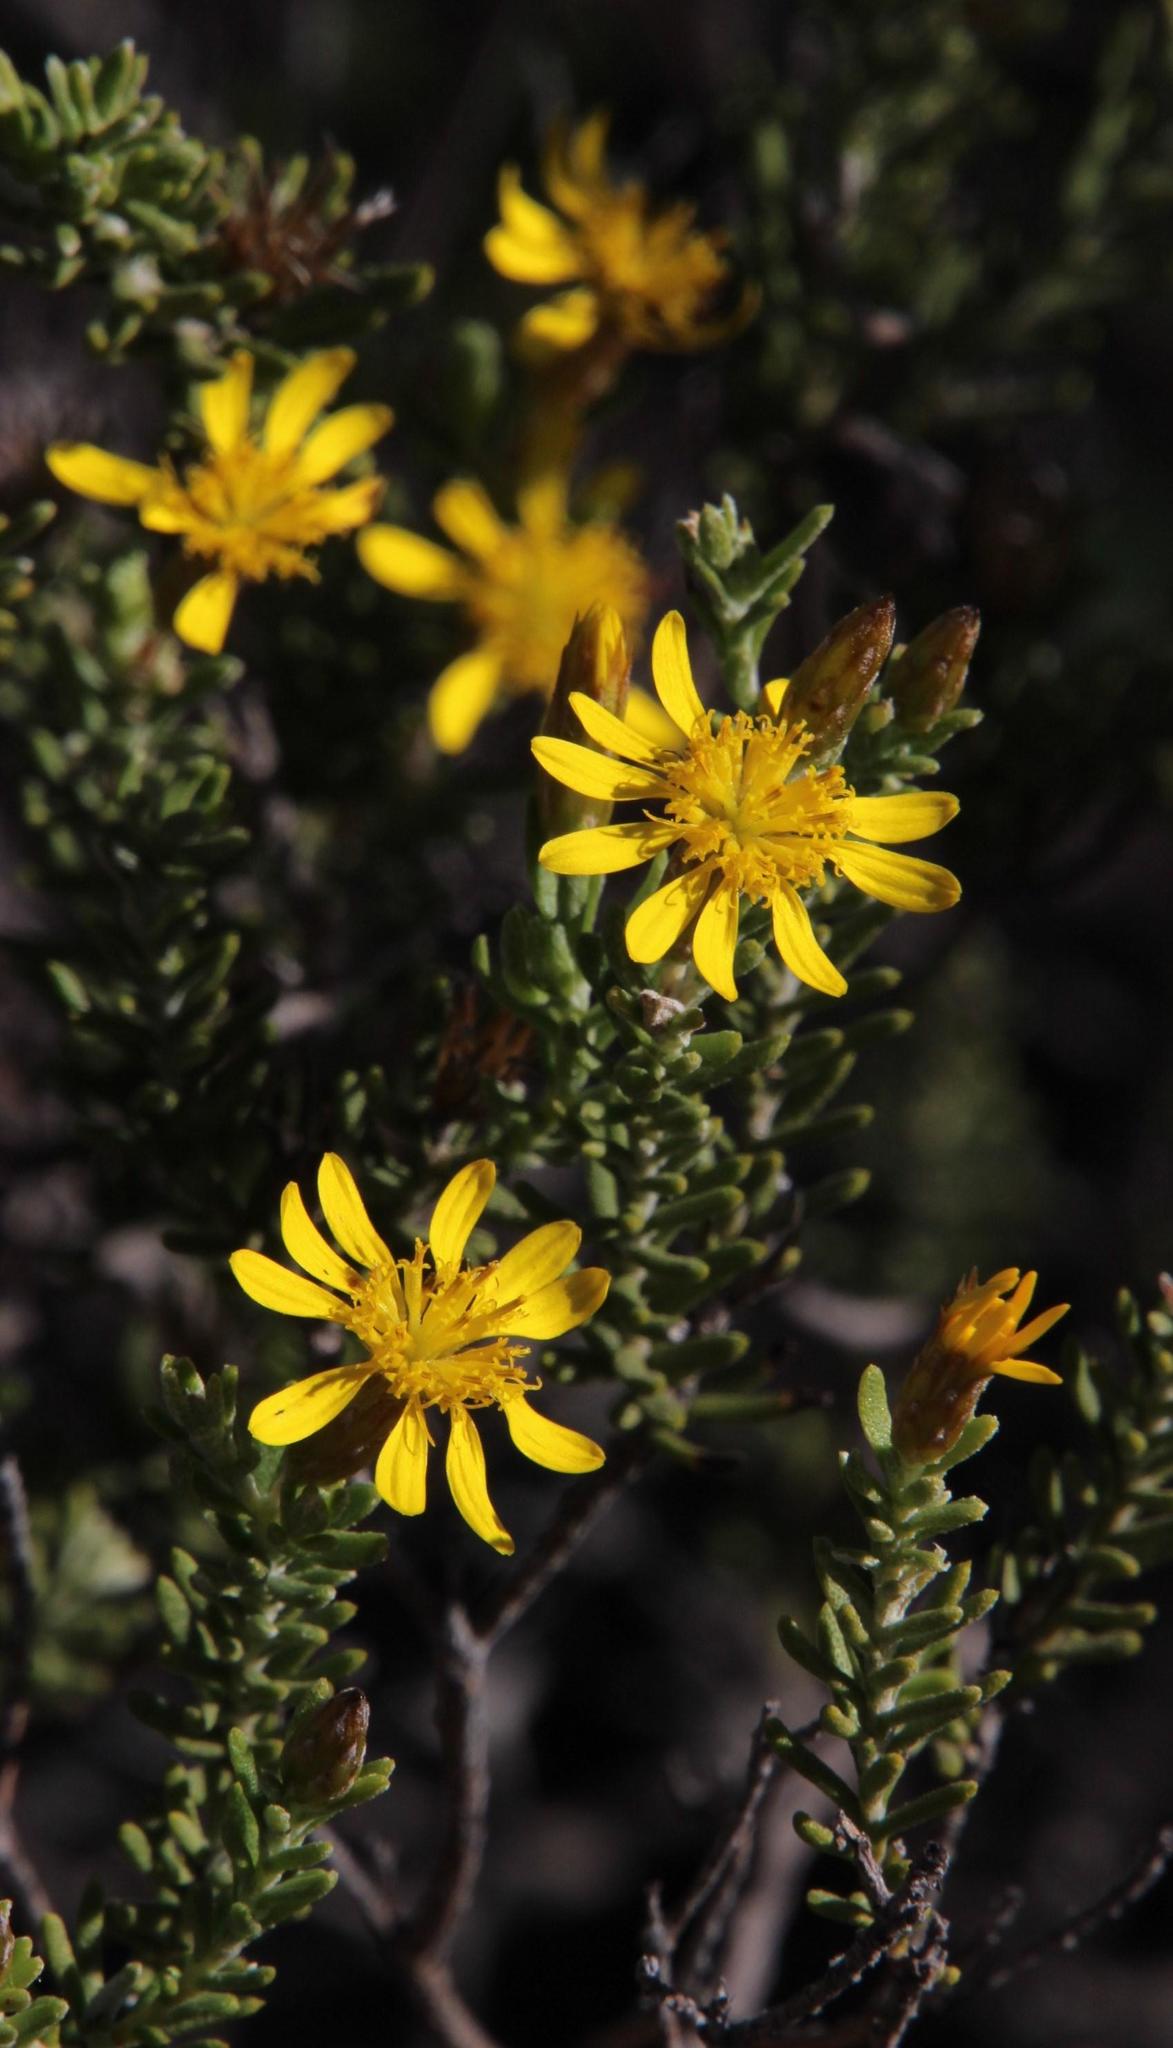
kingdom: Plantae
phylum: Tracheophyta
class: Magnoliopsida
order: Asterales
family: Asteraceae
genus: Oedera
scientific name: Oedera sedifolia
